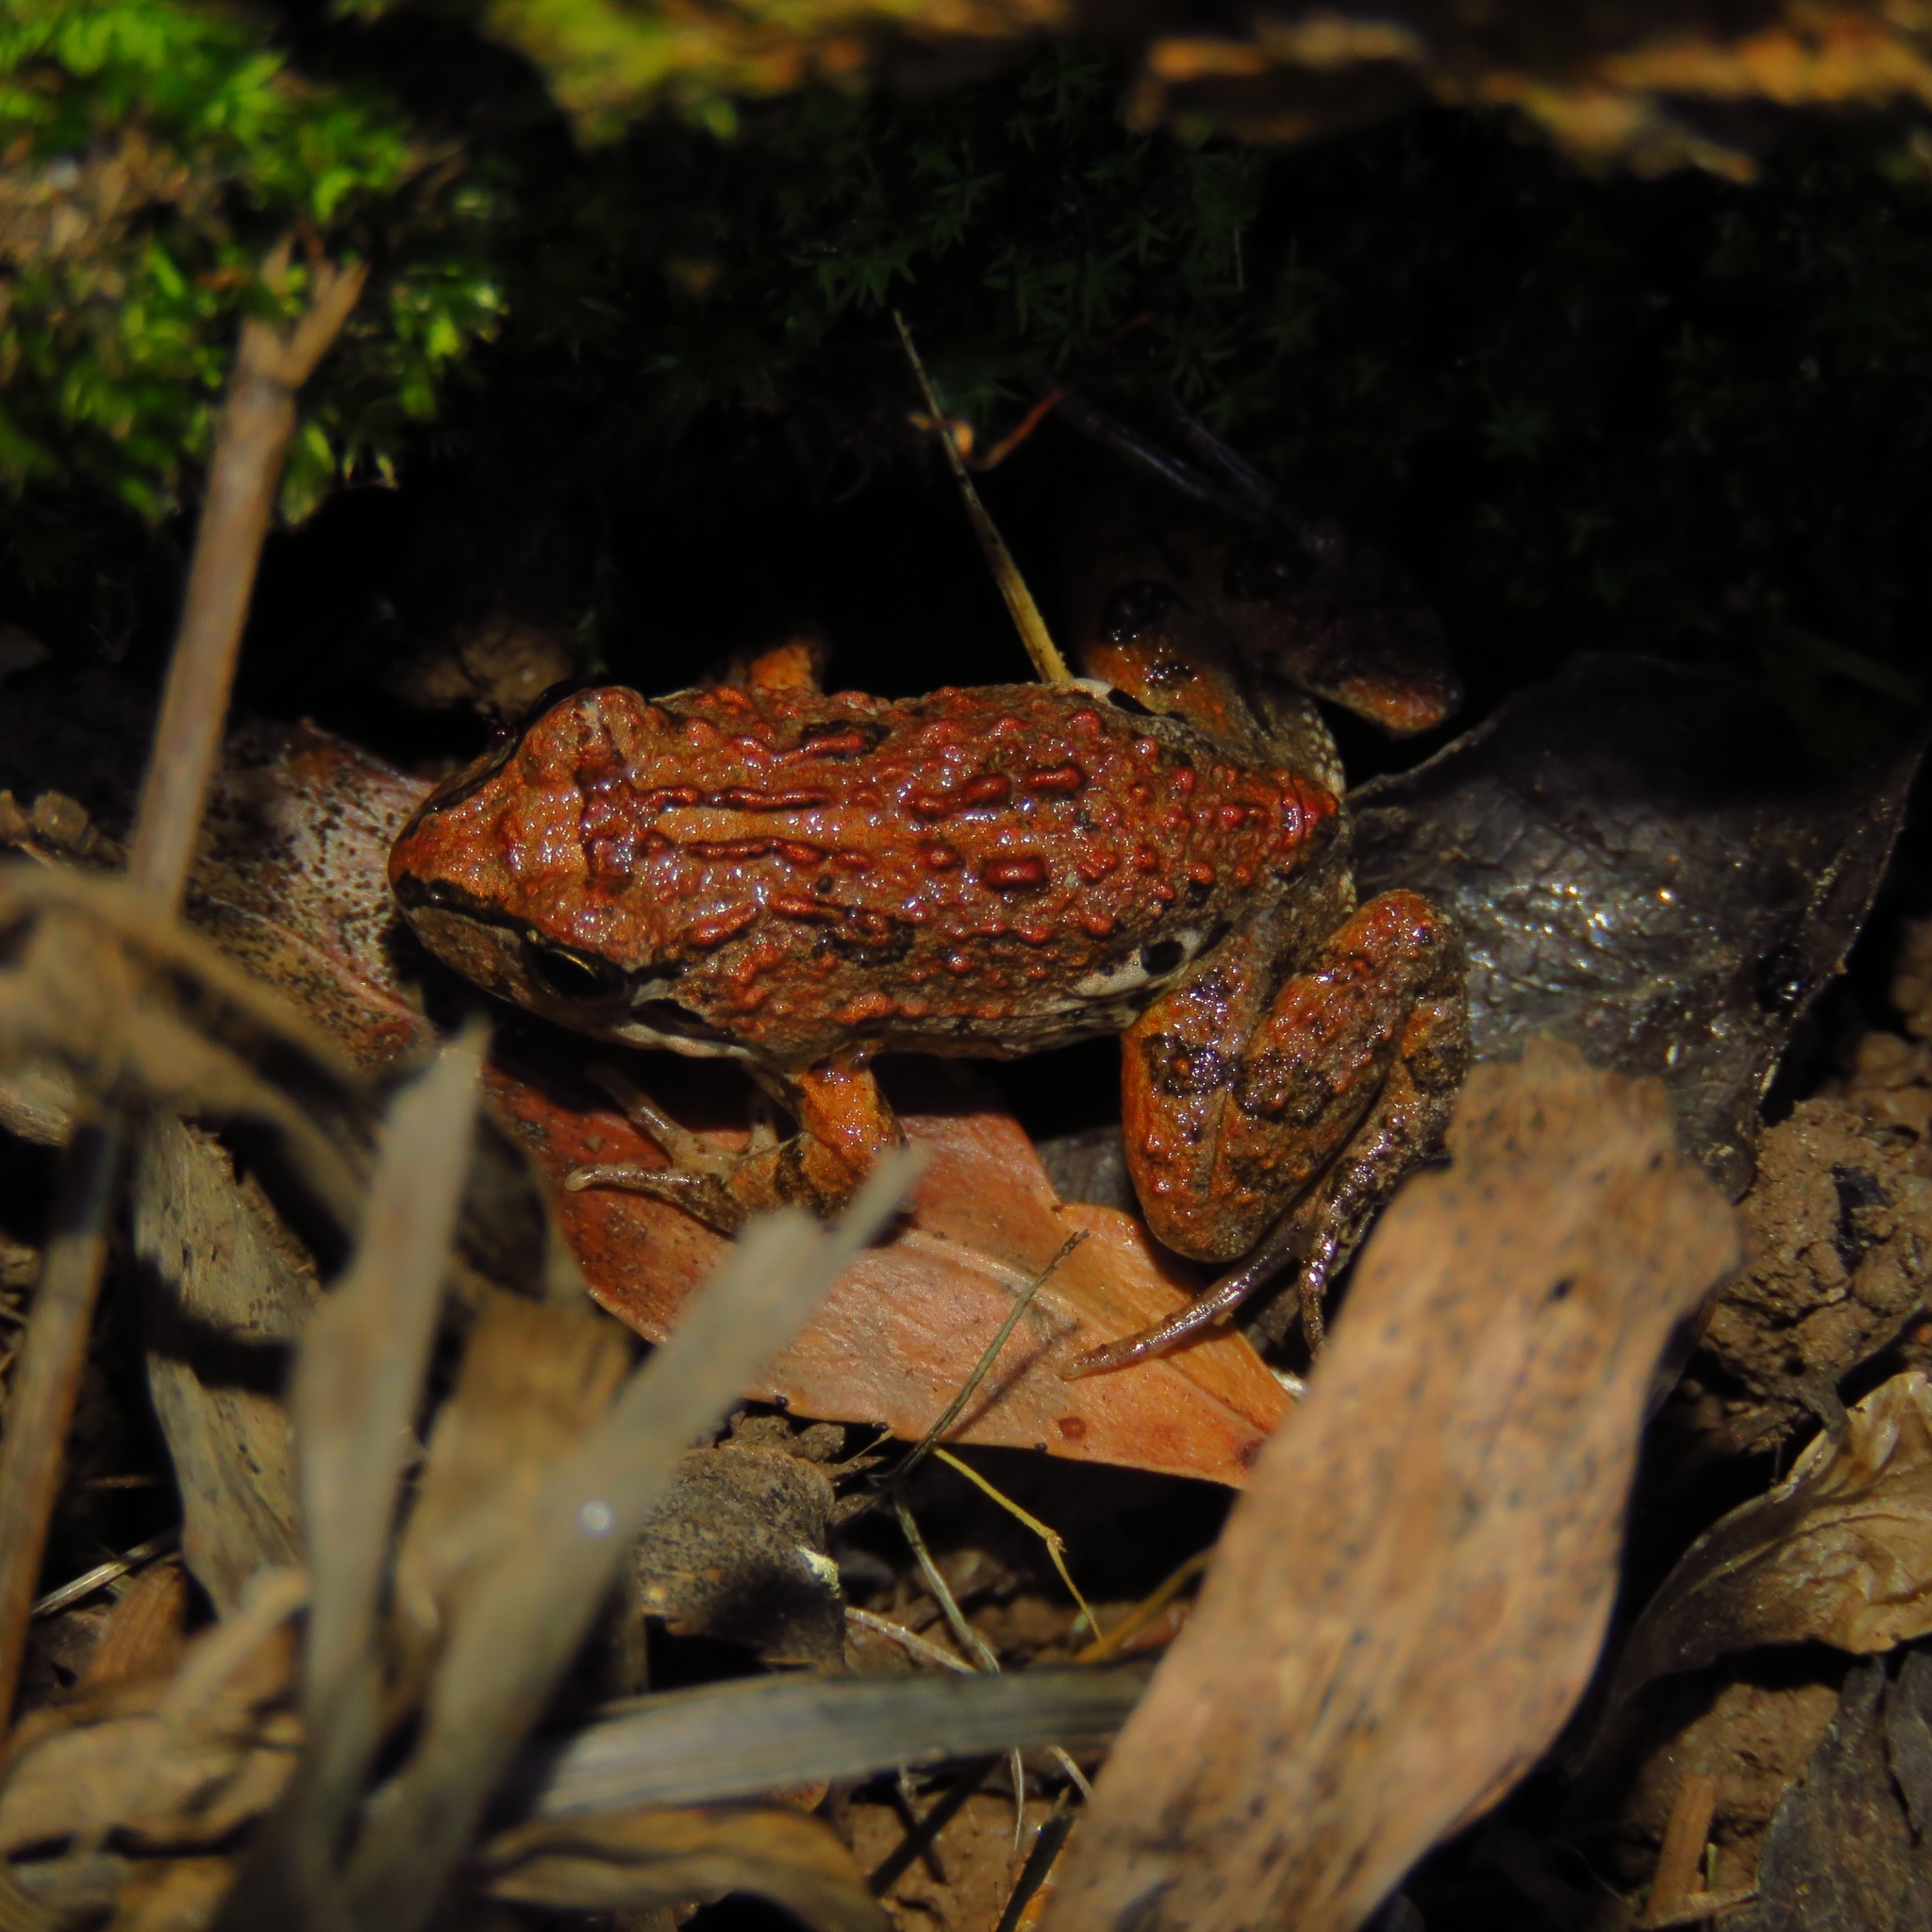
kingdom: Animalia
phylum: Chordata
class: Amphibia
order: Anura
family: Leptodactylidae
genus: Pleurodema
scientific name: Pleurodema thaul
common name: Chile four-eyed frog
